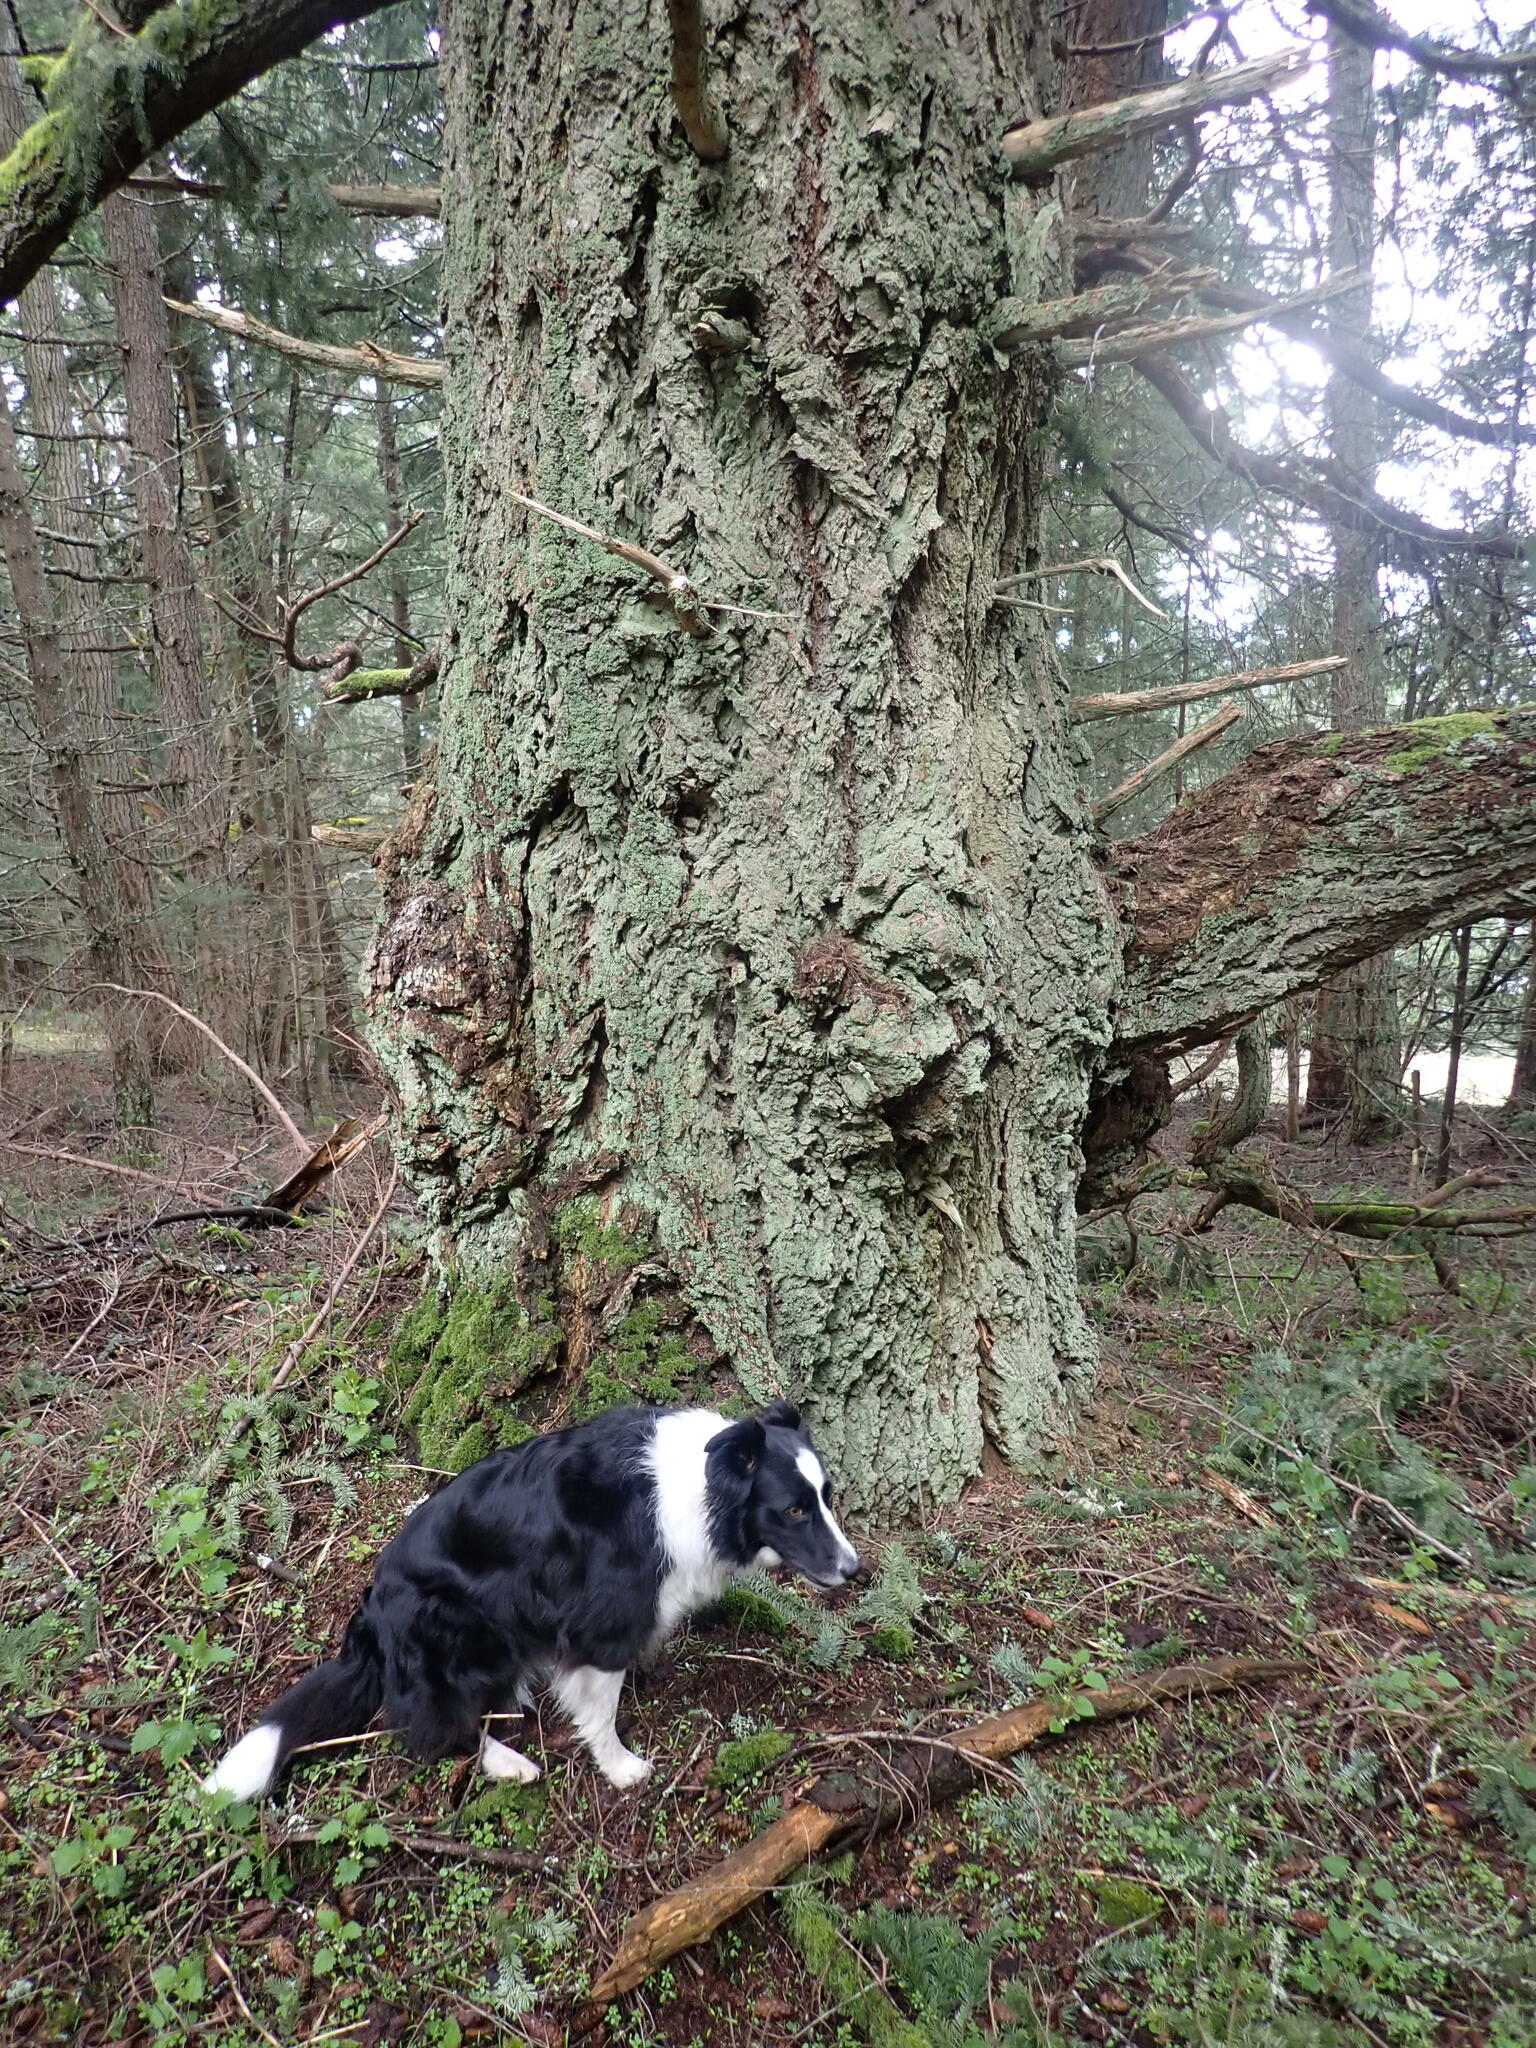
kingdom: Plantae
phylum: Tracheophyta
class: Pinopsida
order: Pinales
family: Pinaceae
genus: Pseudotsuga
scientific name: Pseudotsuga menziesii
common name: Douglas fir
